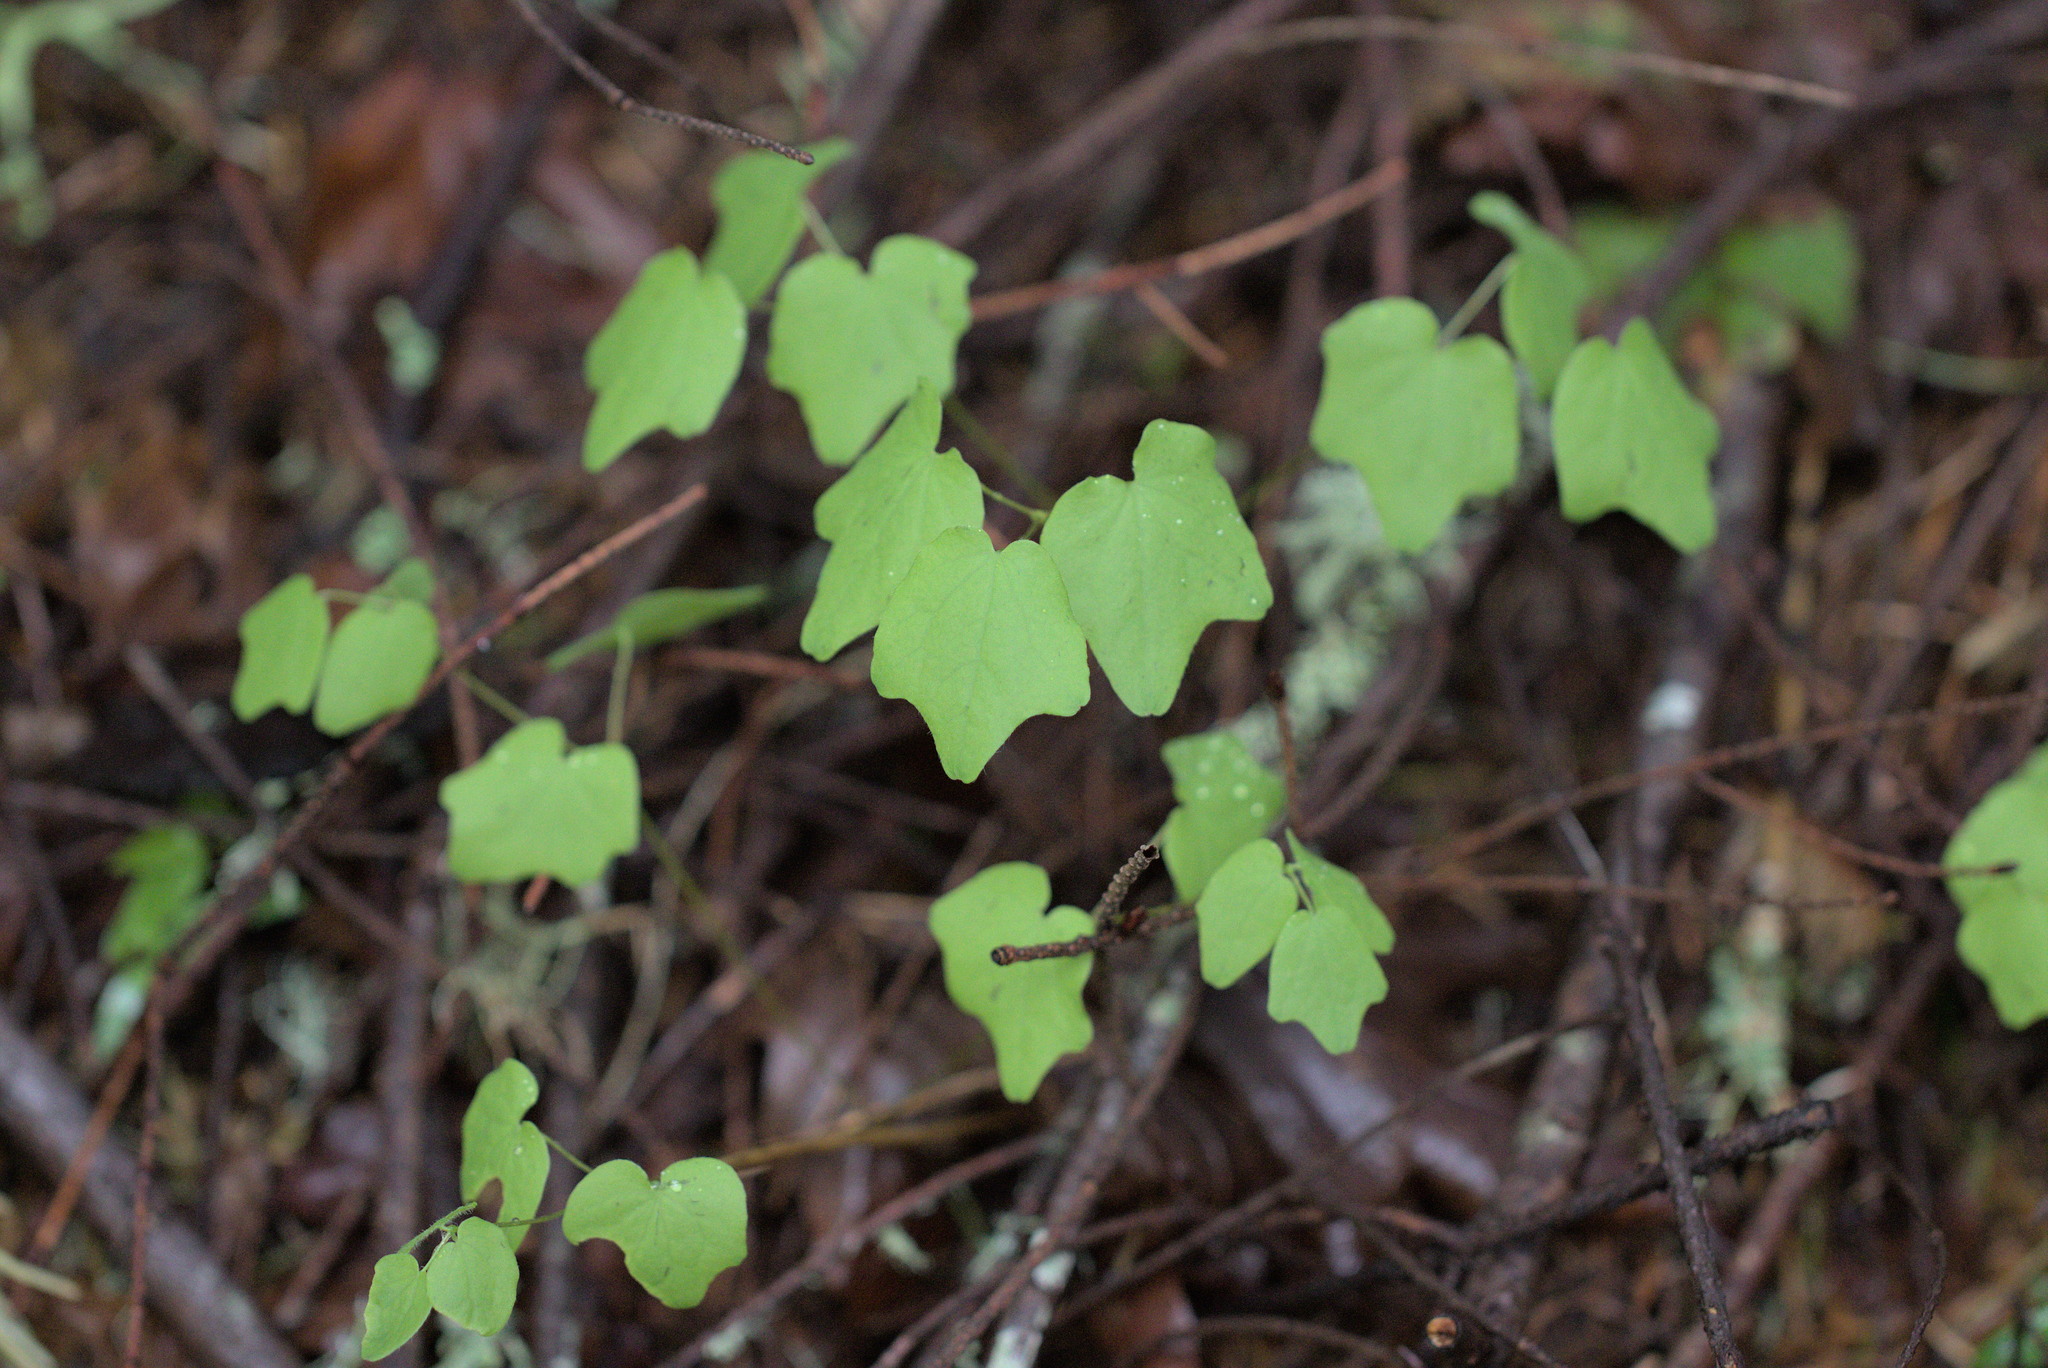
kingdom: Plantae
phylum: Tracheophyta
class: Magnoliopsida
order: Ranunculales
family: Berberidaceae
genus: Vancouveria
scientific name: Vancouveria hexandra
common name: Northern inside-out-flower
